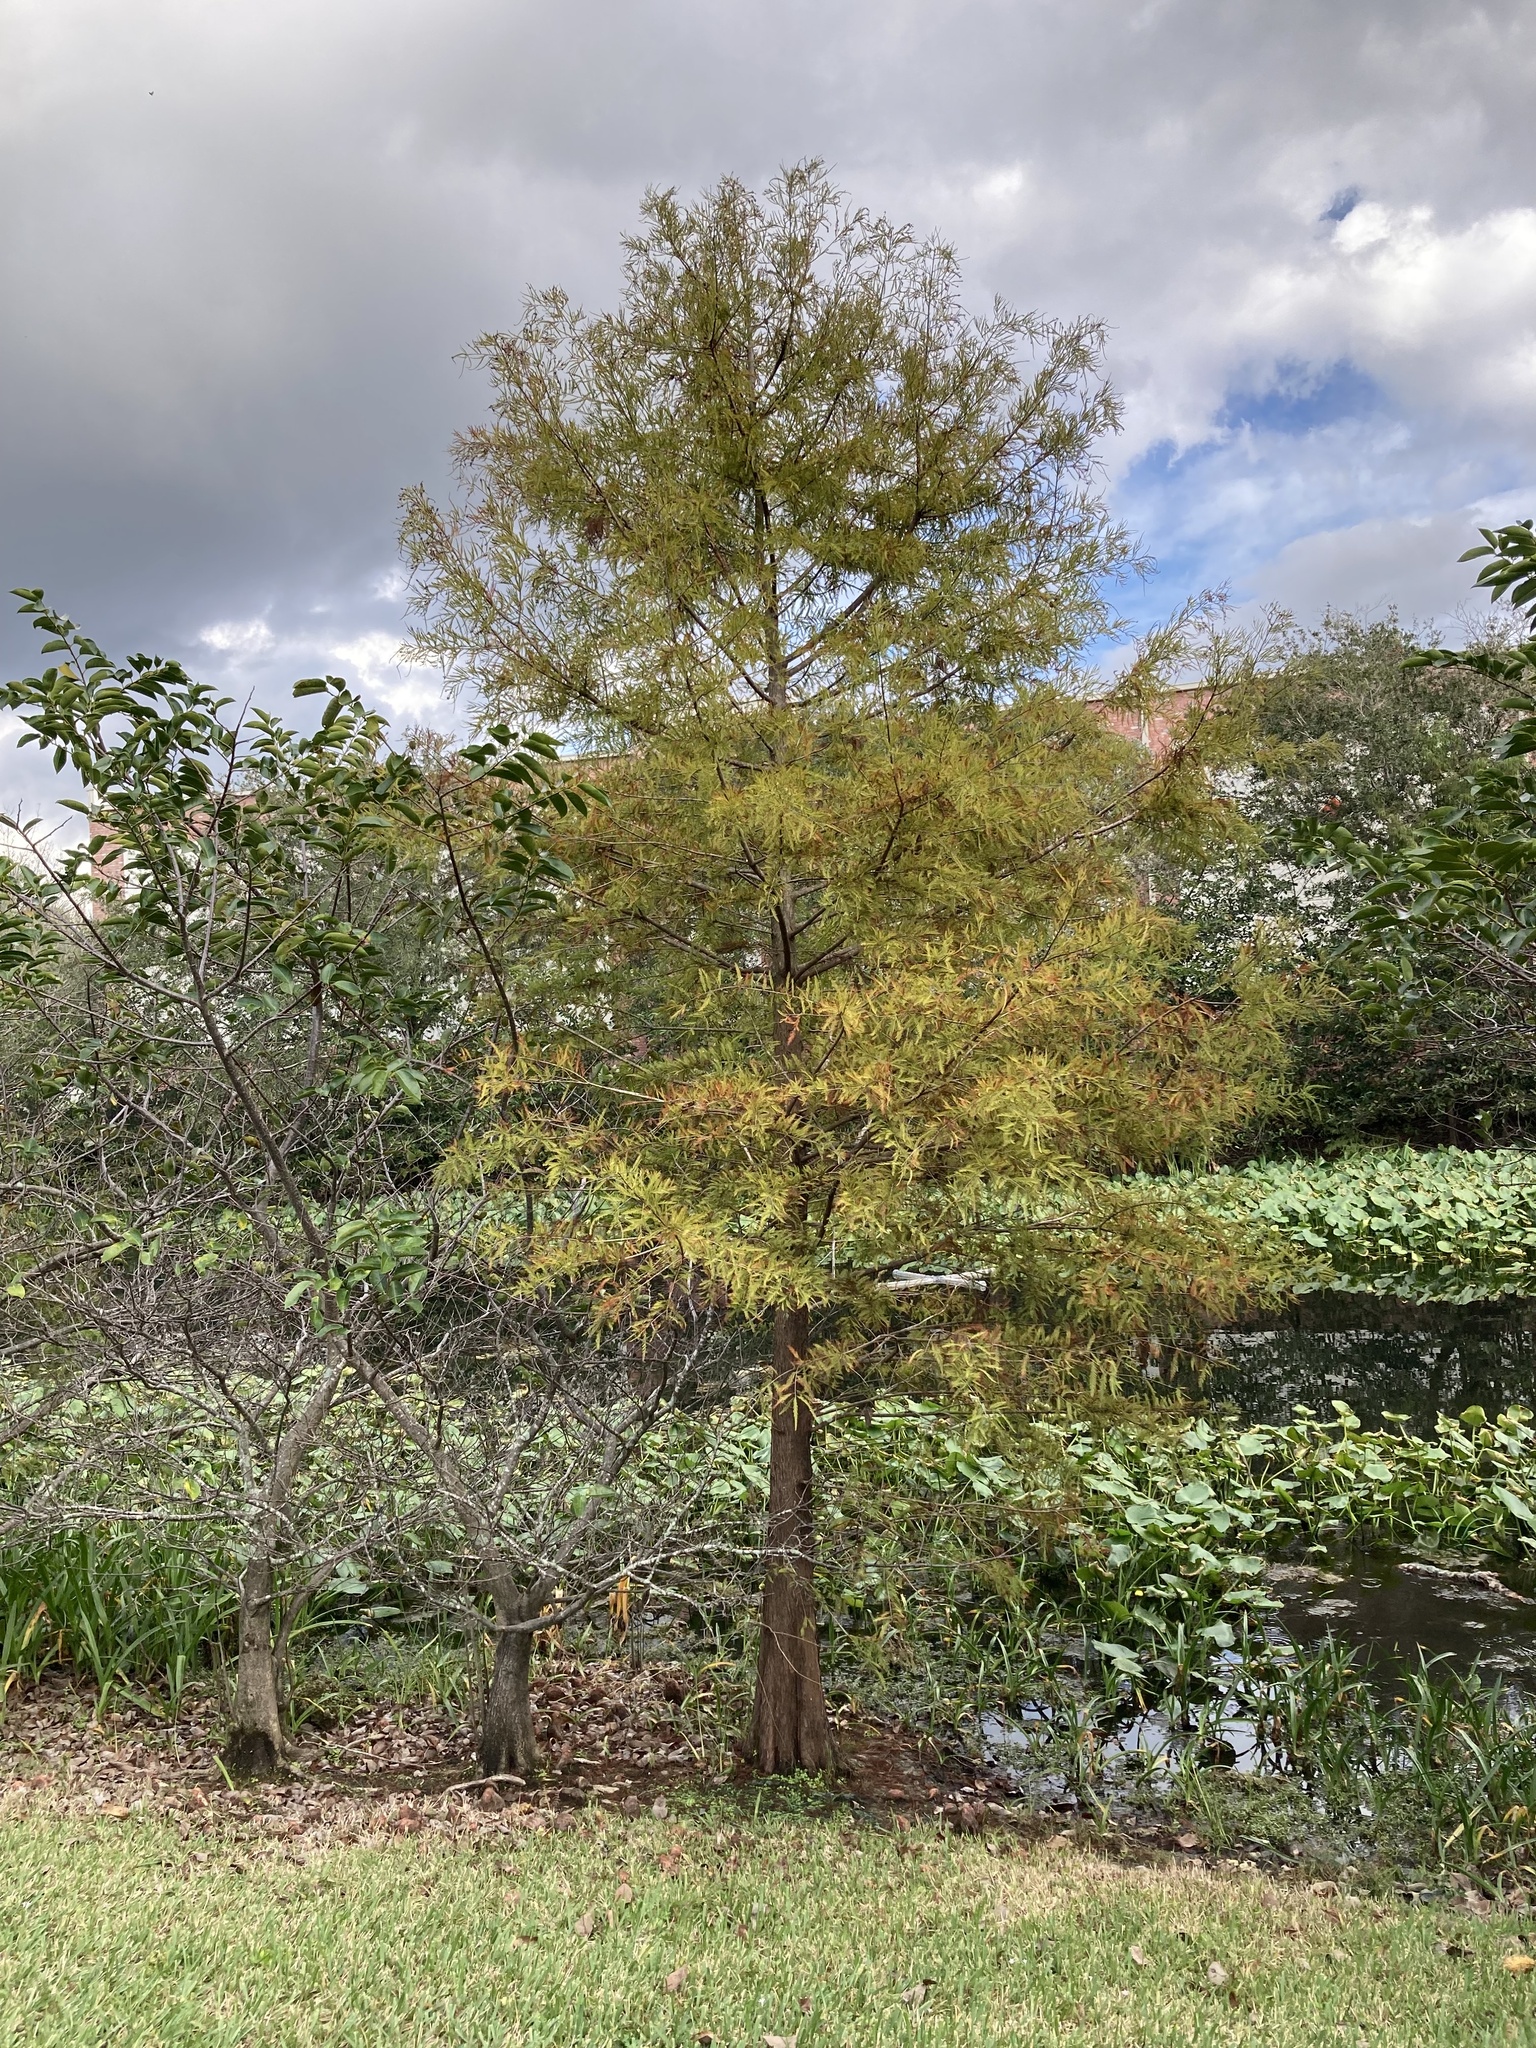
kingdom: Plantae
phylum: Tracheophyta
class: Pinopsida
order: Pinales
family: Cupressaceae
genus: Taxodium
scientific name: Taxodium distichum
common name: Bald cypress
